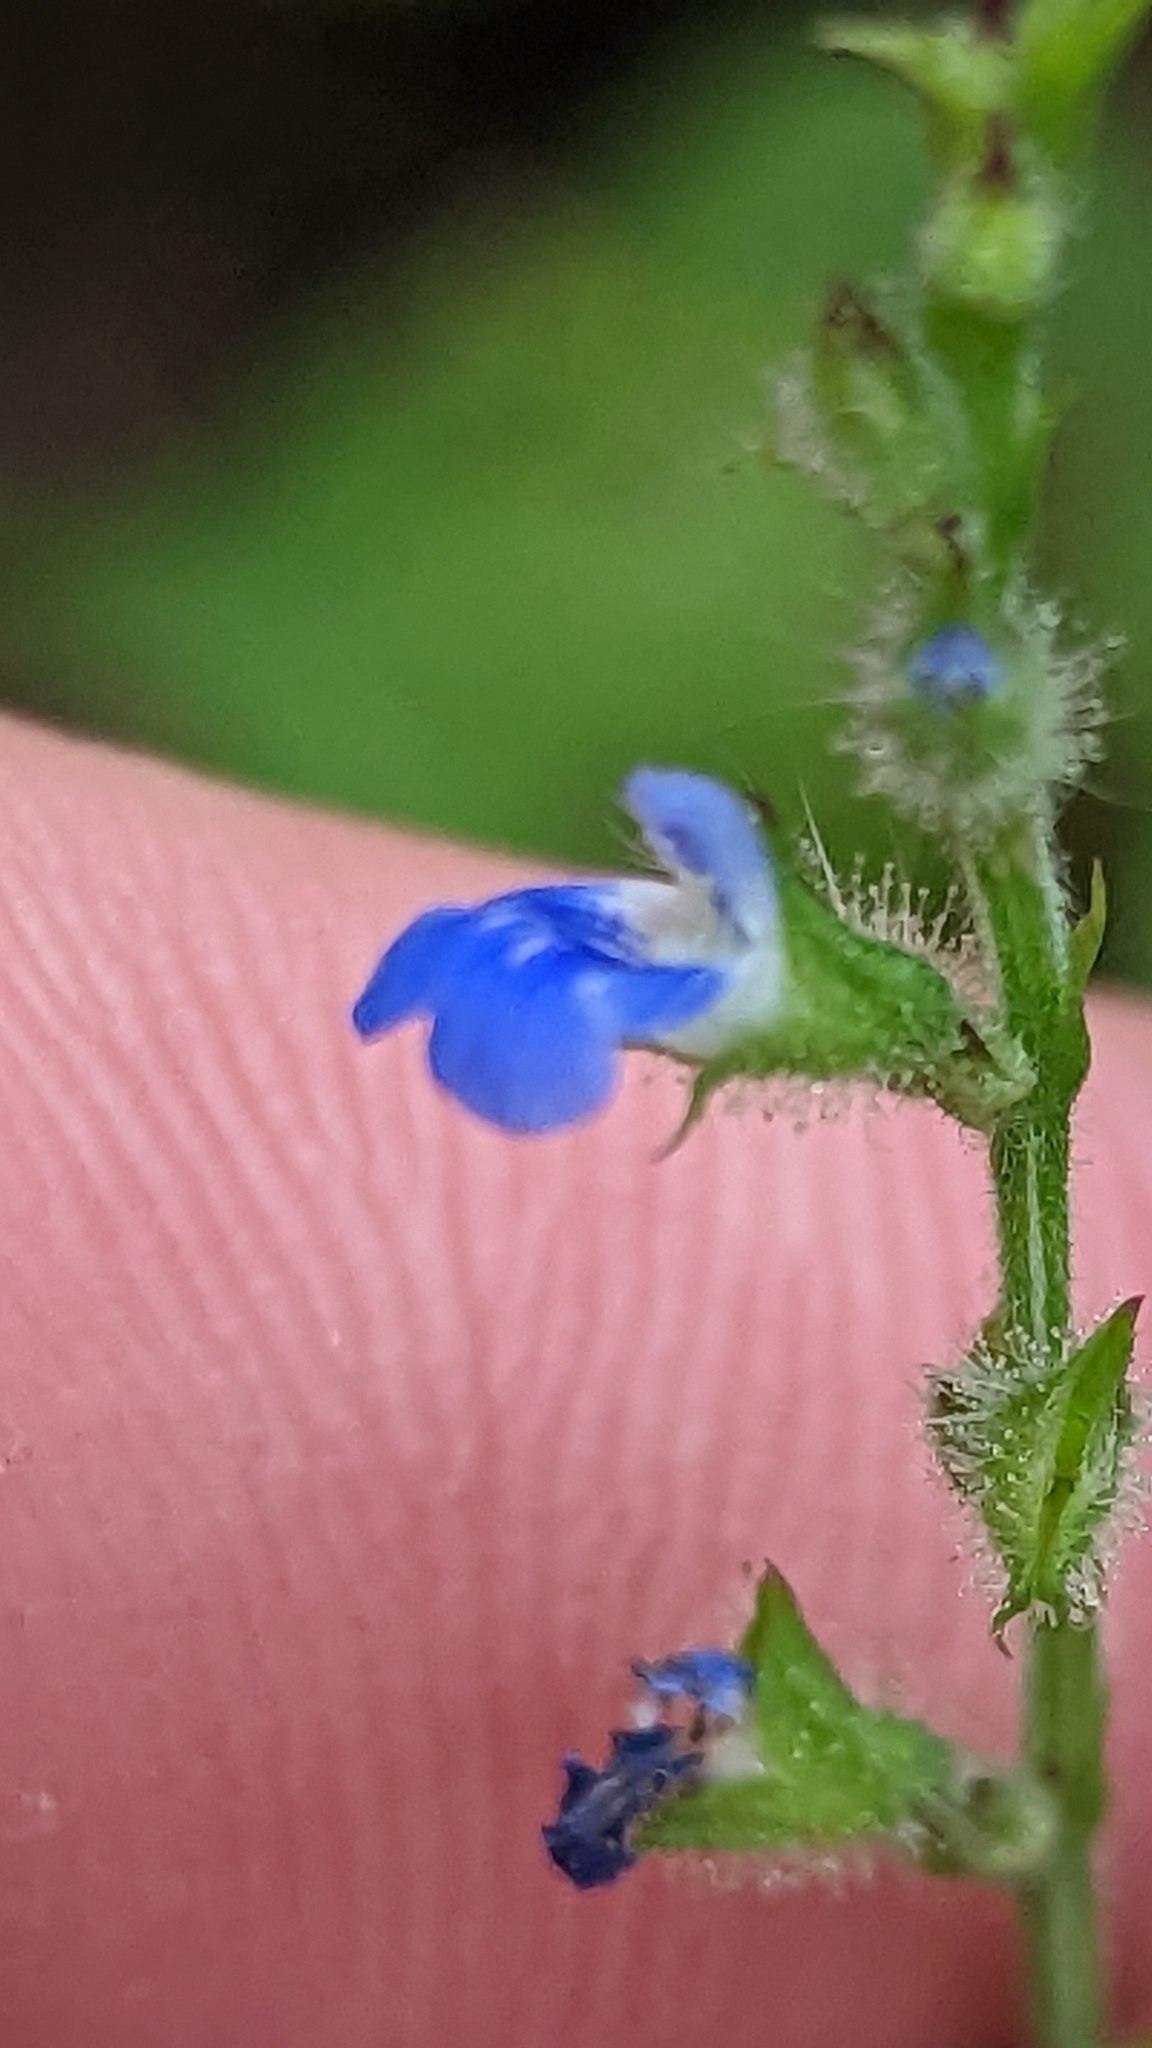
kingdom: Plantae
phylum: Tracheophyta
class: Magnoliopsida
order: Lamiales
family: Lamiaceae
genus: Salvia
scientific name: Salvia misella
